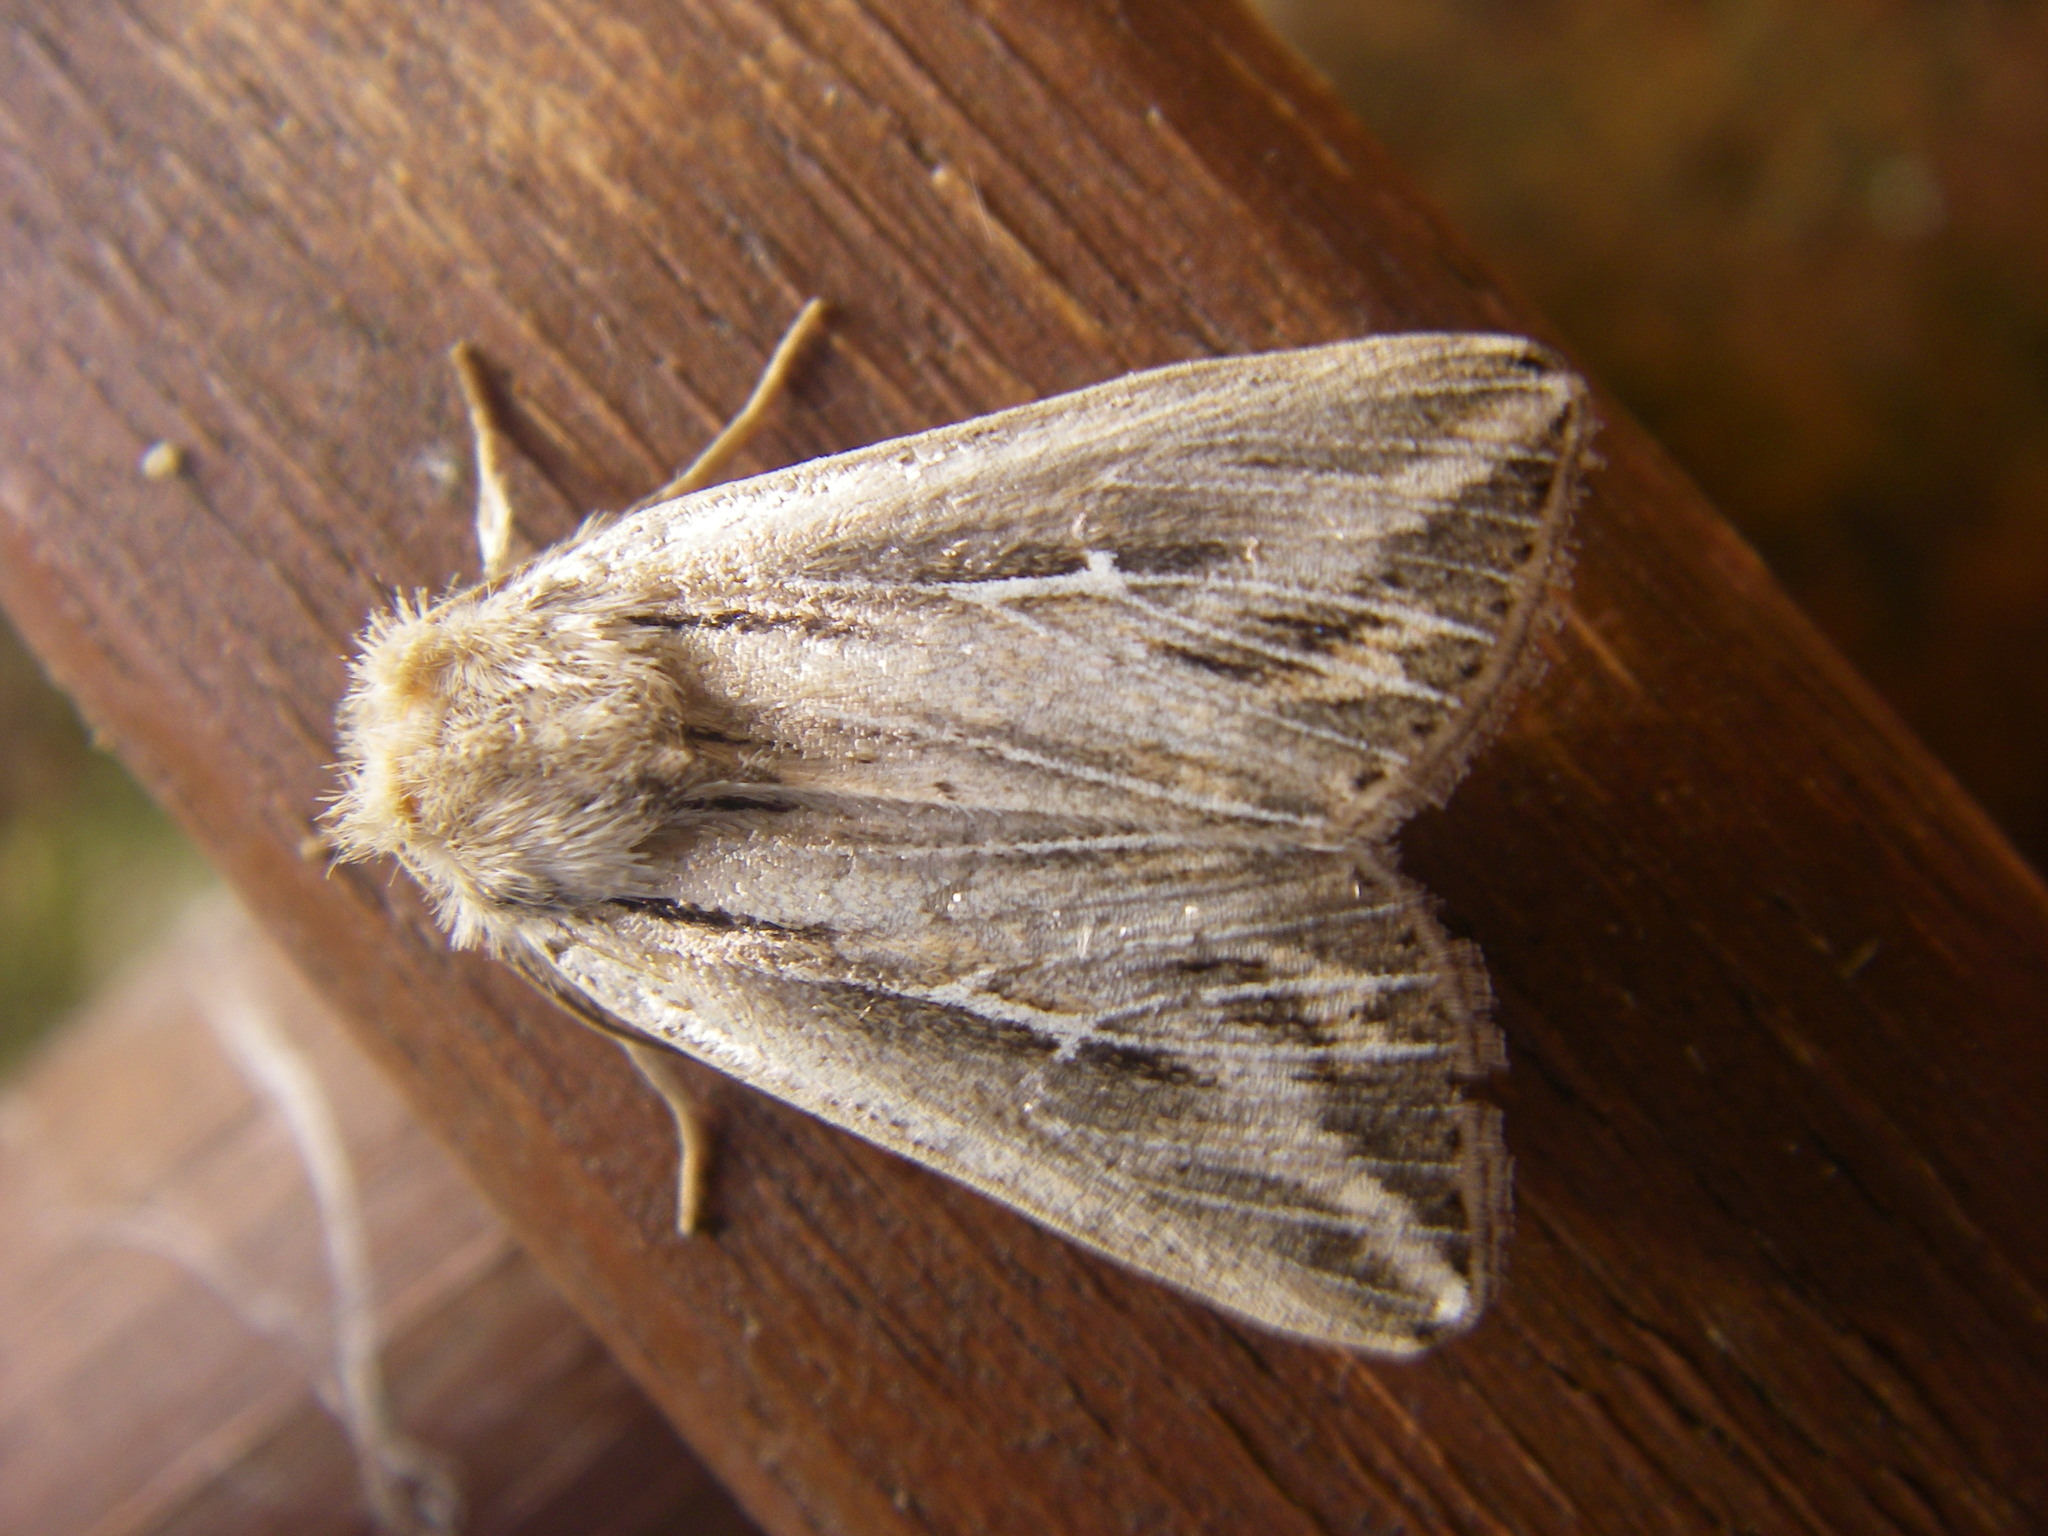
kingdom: Animalia
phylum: Arthropoda
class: Insecta
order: Lepidoptera
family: Noctuidae
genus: Mythimna
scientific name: Mythimna l-album
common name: L-album wainscot
